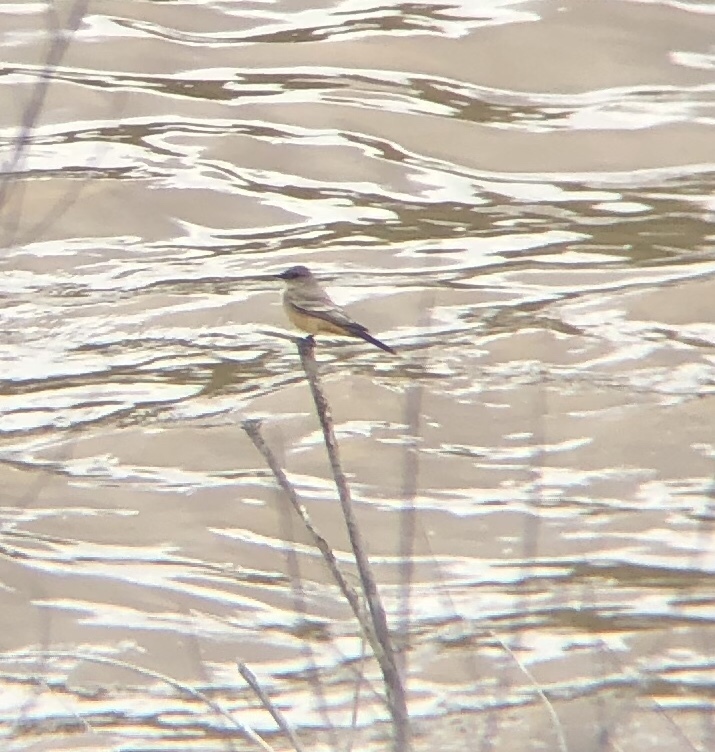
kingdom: Animalia
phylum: Chordata
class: Aves
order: Passeriformes
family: Tyrannidae
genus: Sayornis
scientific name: Sayornis saya
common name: Say's phoebe
